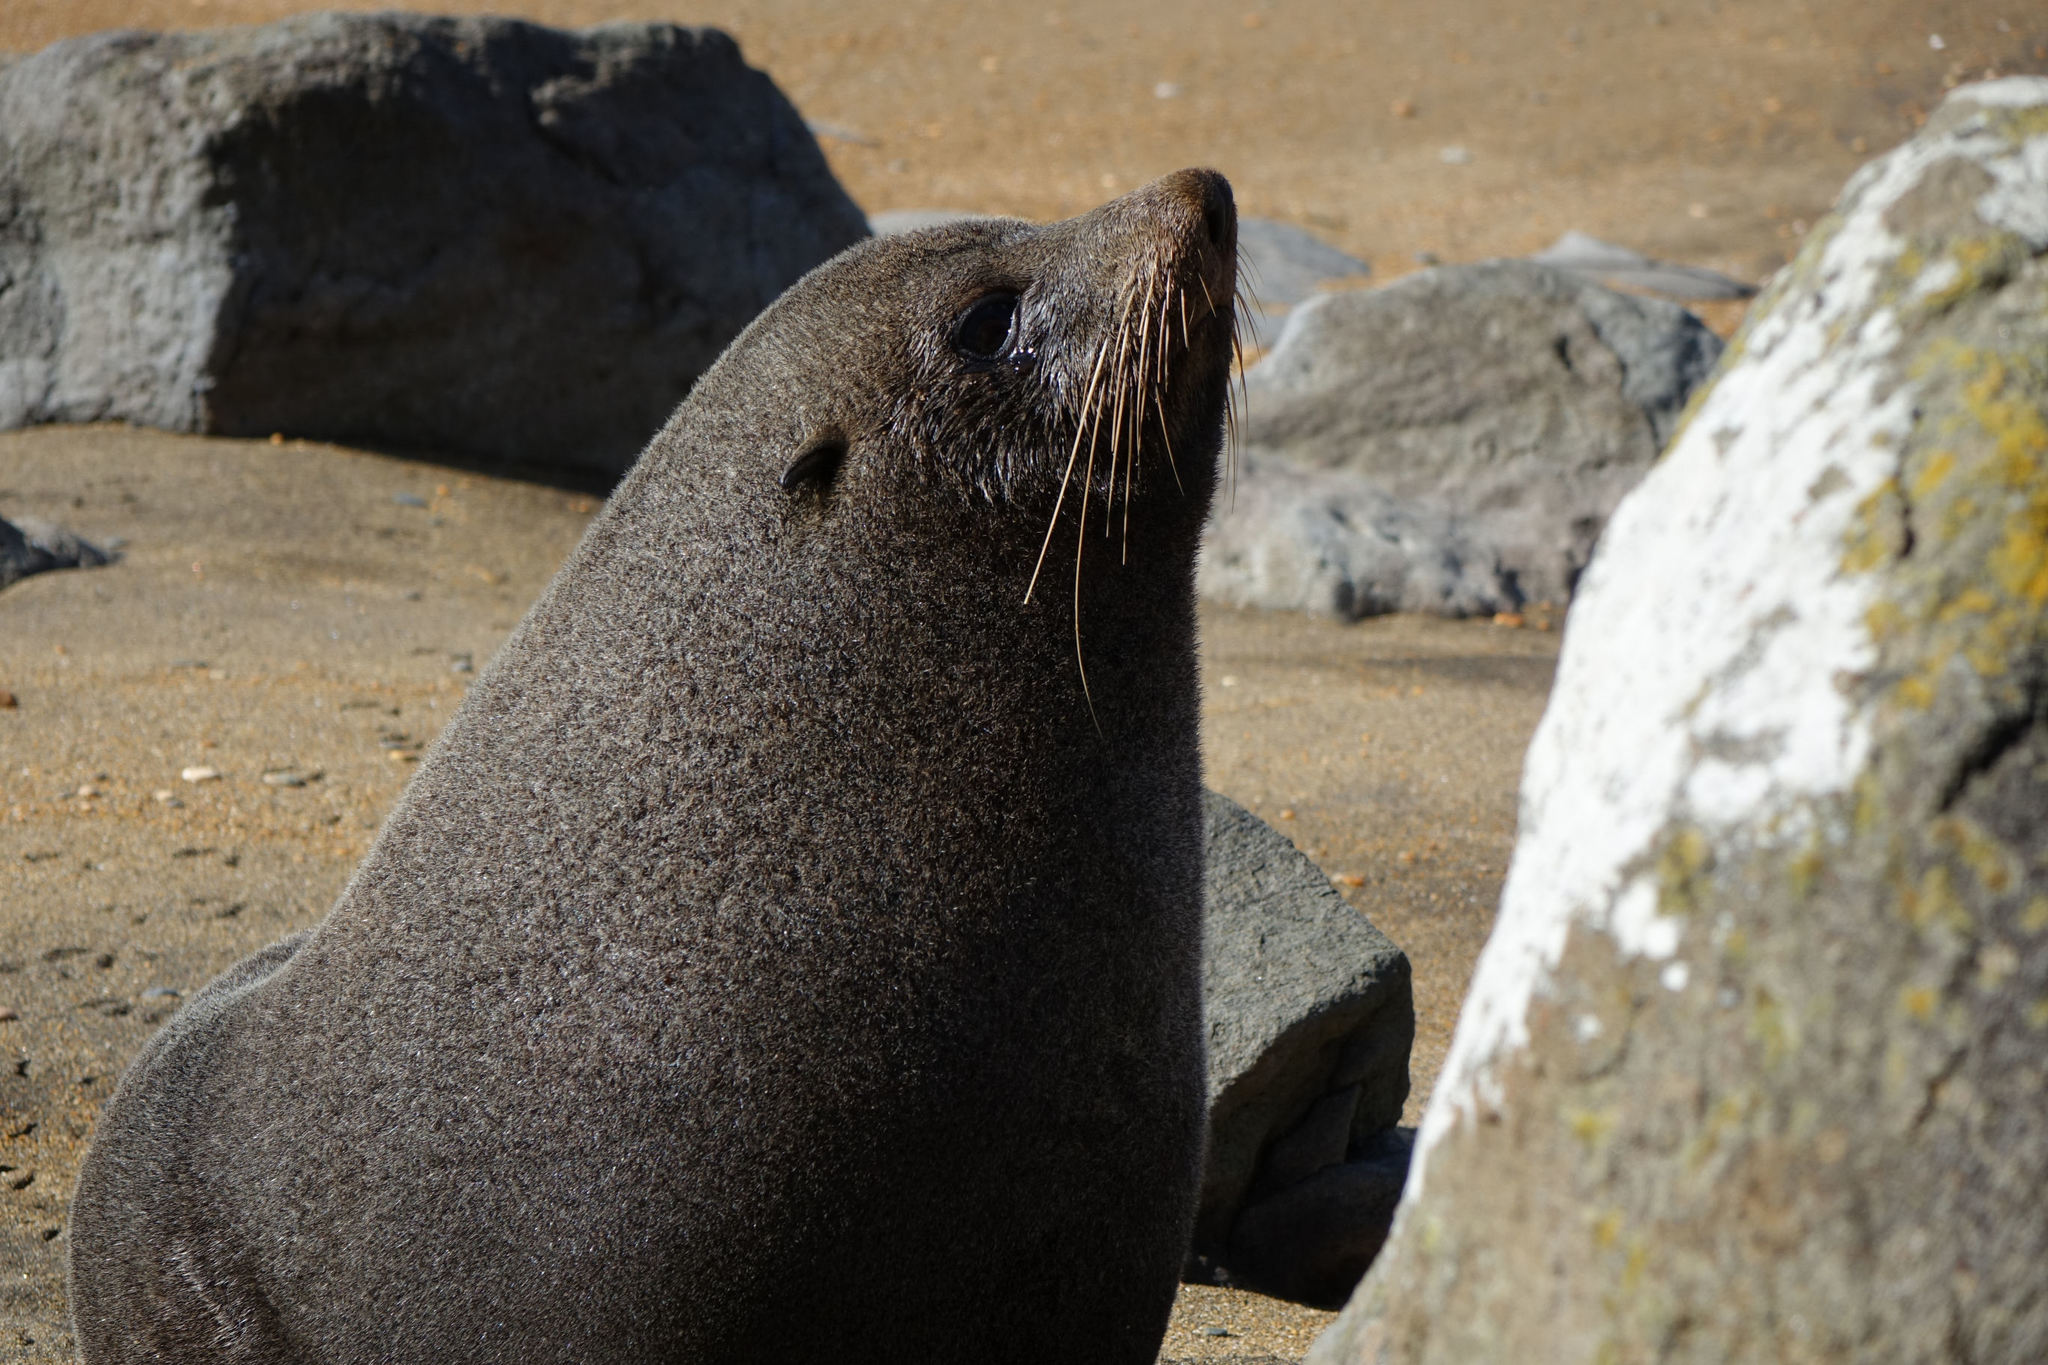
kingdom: Animalia
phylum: Chordata
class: Mammalia
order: Carnivora
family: Otariidae
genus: Arctocephalus
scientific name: Arctocephalus forsteri
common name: New zealand fur seal
